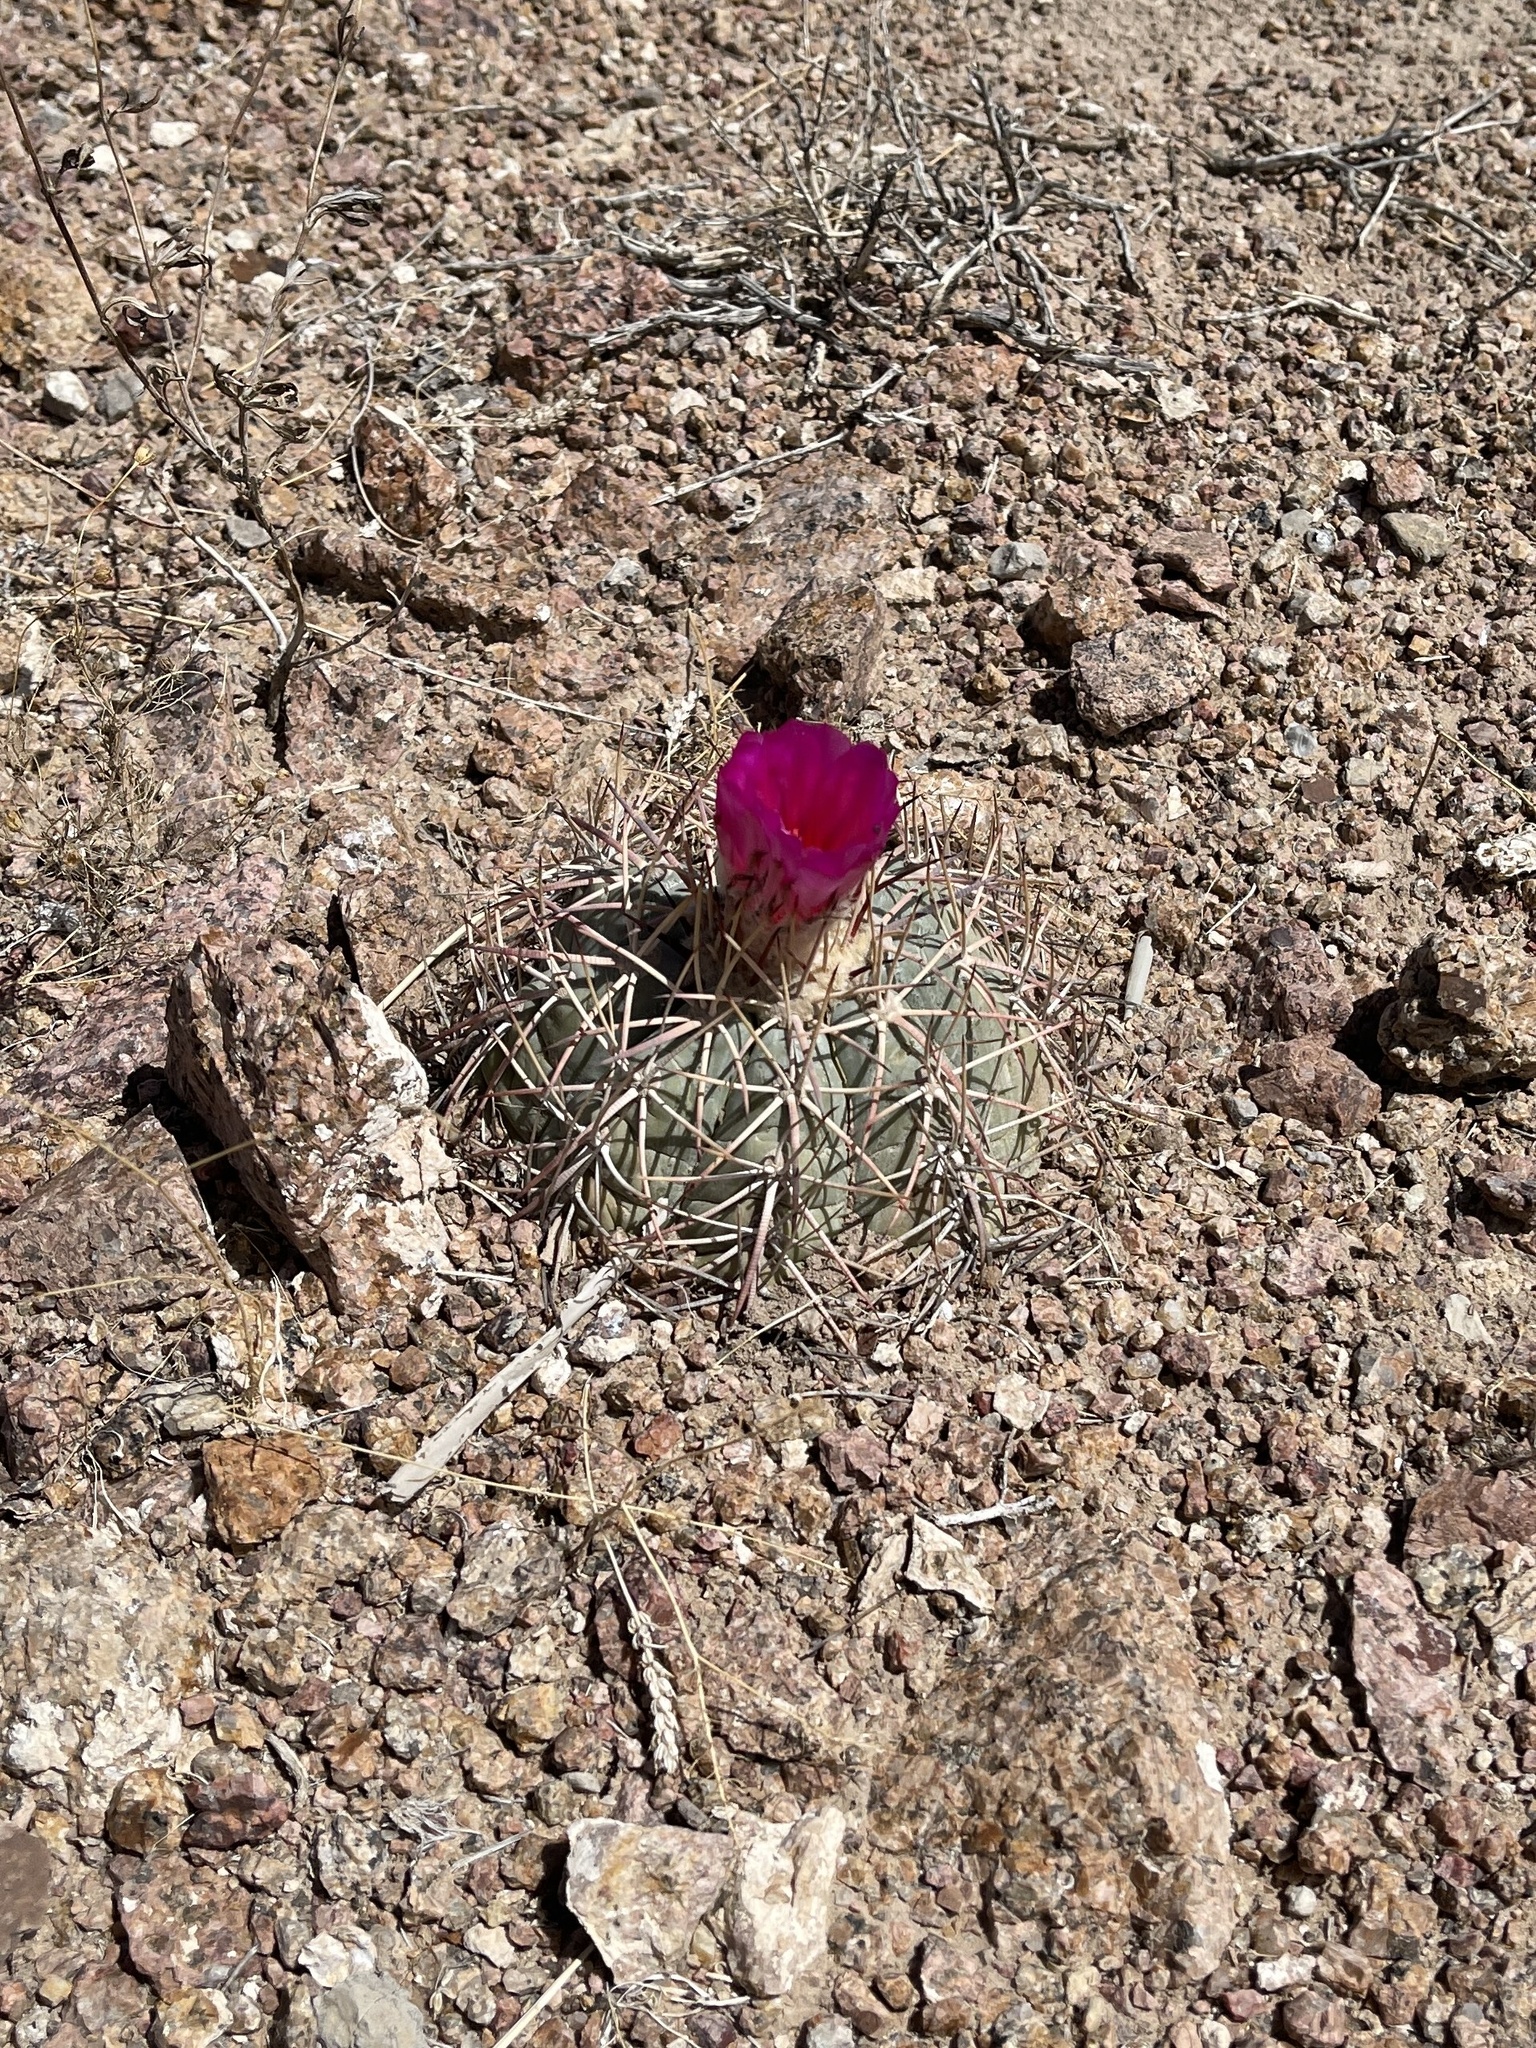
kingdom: Plantae
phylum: Tracheophyta
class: Magnoliopsida
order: Caryophyllales
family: Cactaceae
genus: Echinocactus
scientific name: Echinocactus horizonthalonius
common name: Devilshead
